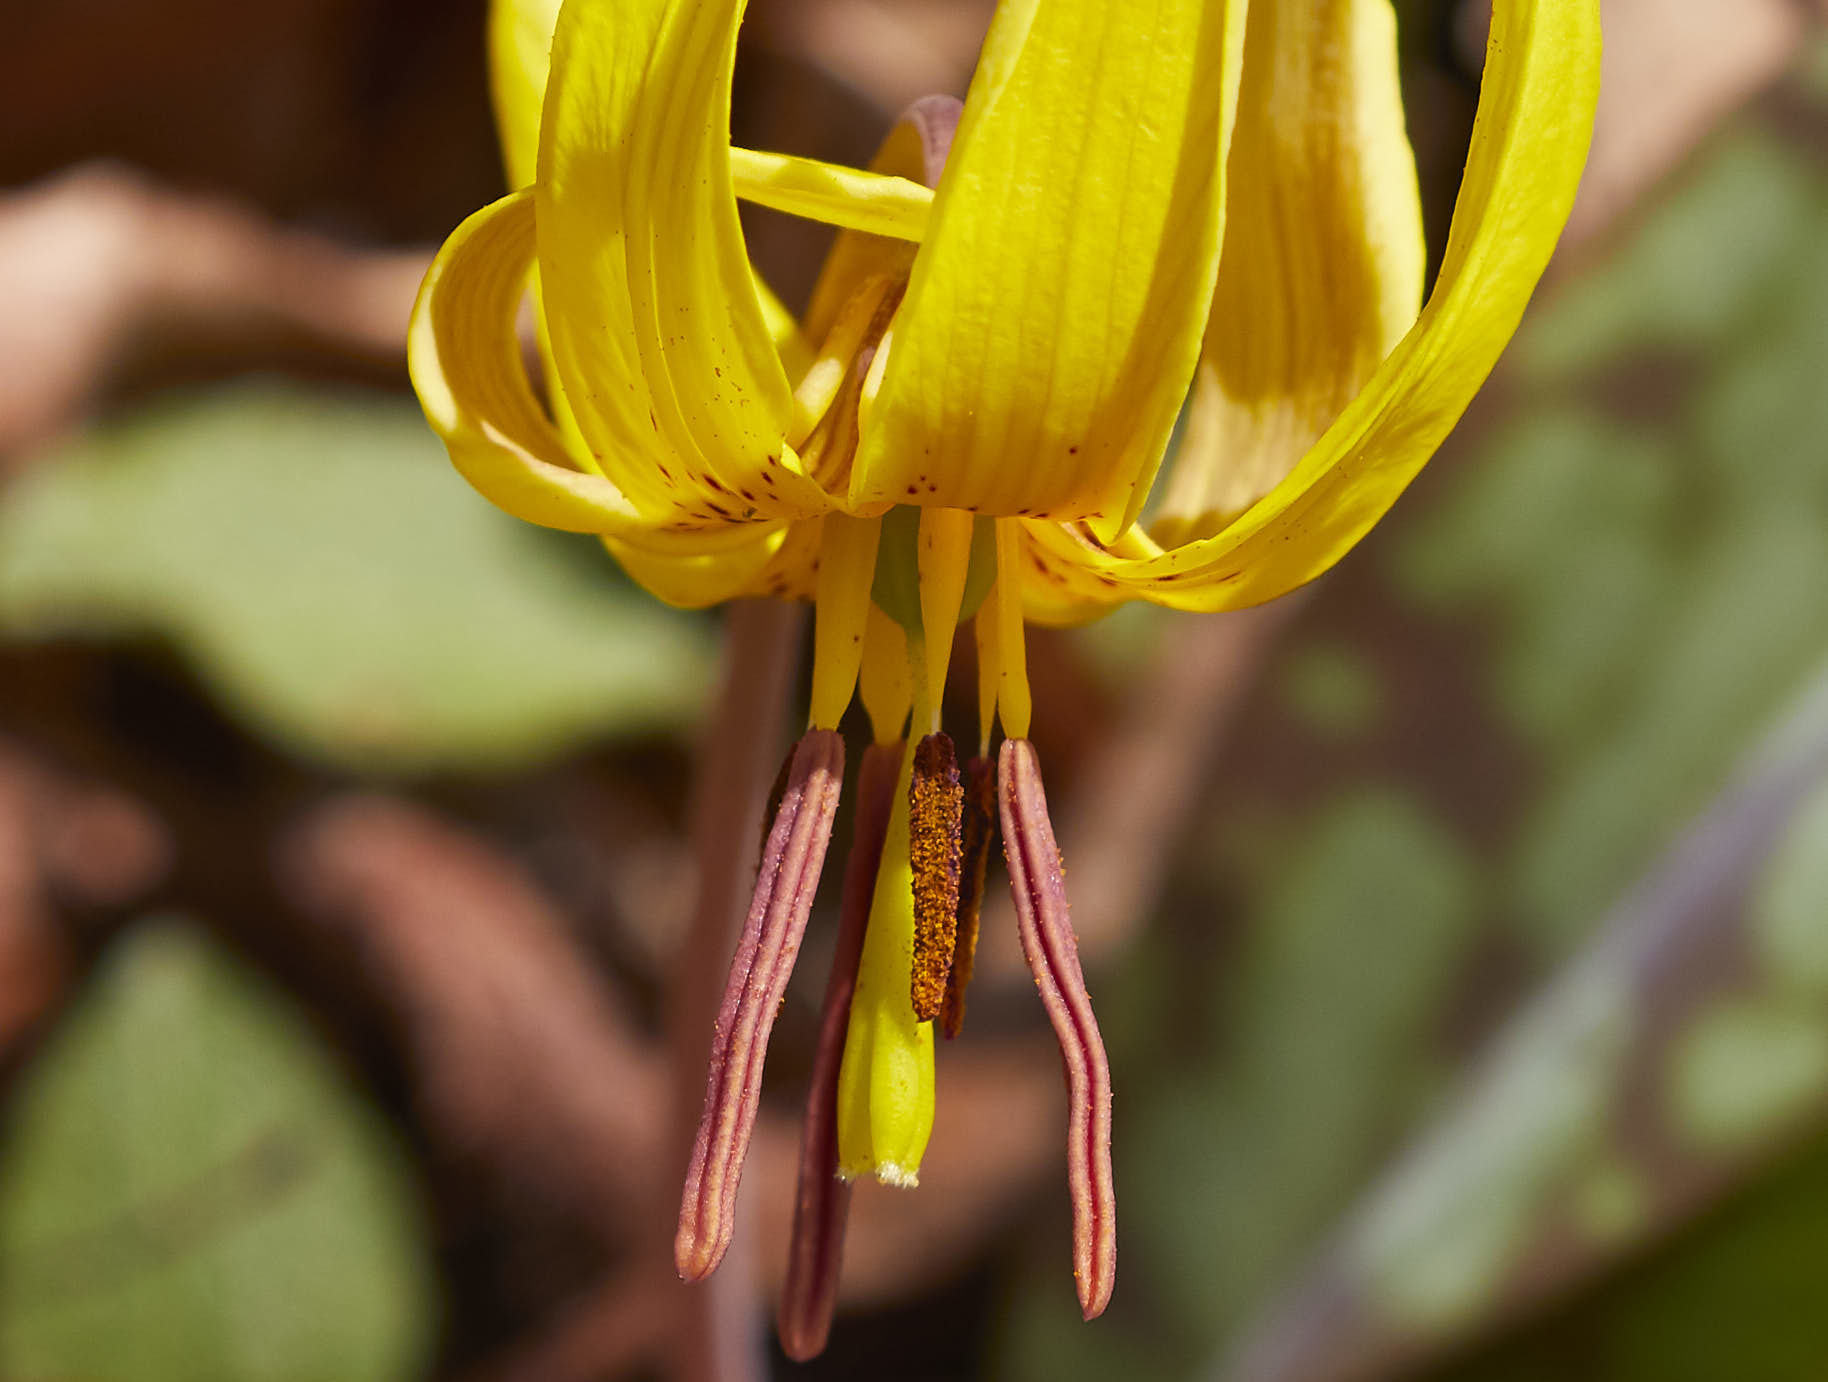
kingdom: Plantae
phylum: Tracheophyta
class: Liliopsida
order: Liliales
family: Liliaceae
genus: Erythronium
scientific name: Erythronium americanum
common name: Yellow adder's-tongue
